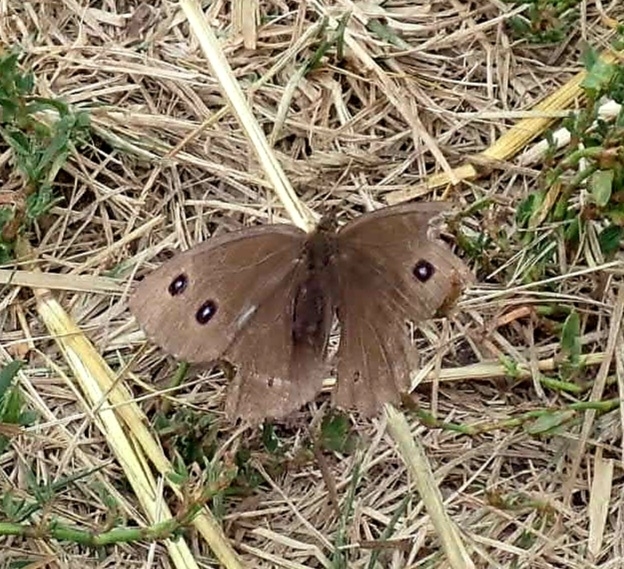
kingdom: Animalia
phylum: Arthropoda
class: Insecta
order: Lepidoptera
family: Nymphalidae
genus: Minois
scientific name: Minois dryas
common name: Dryad
